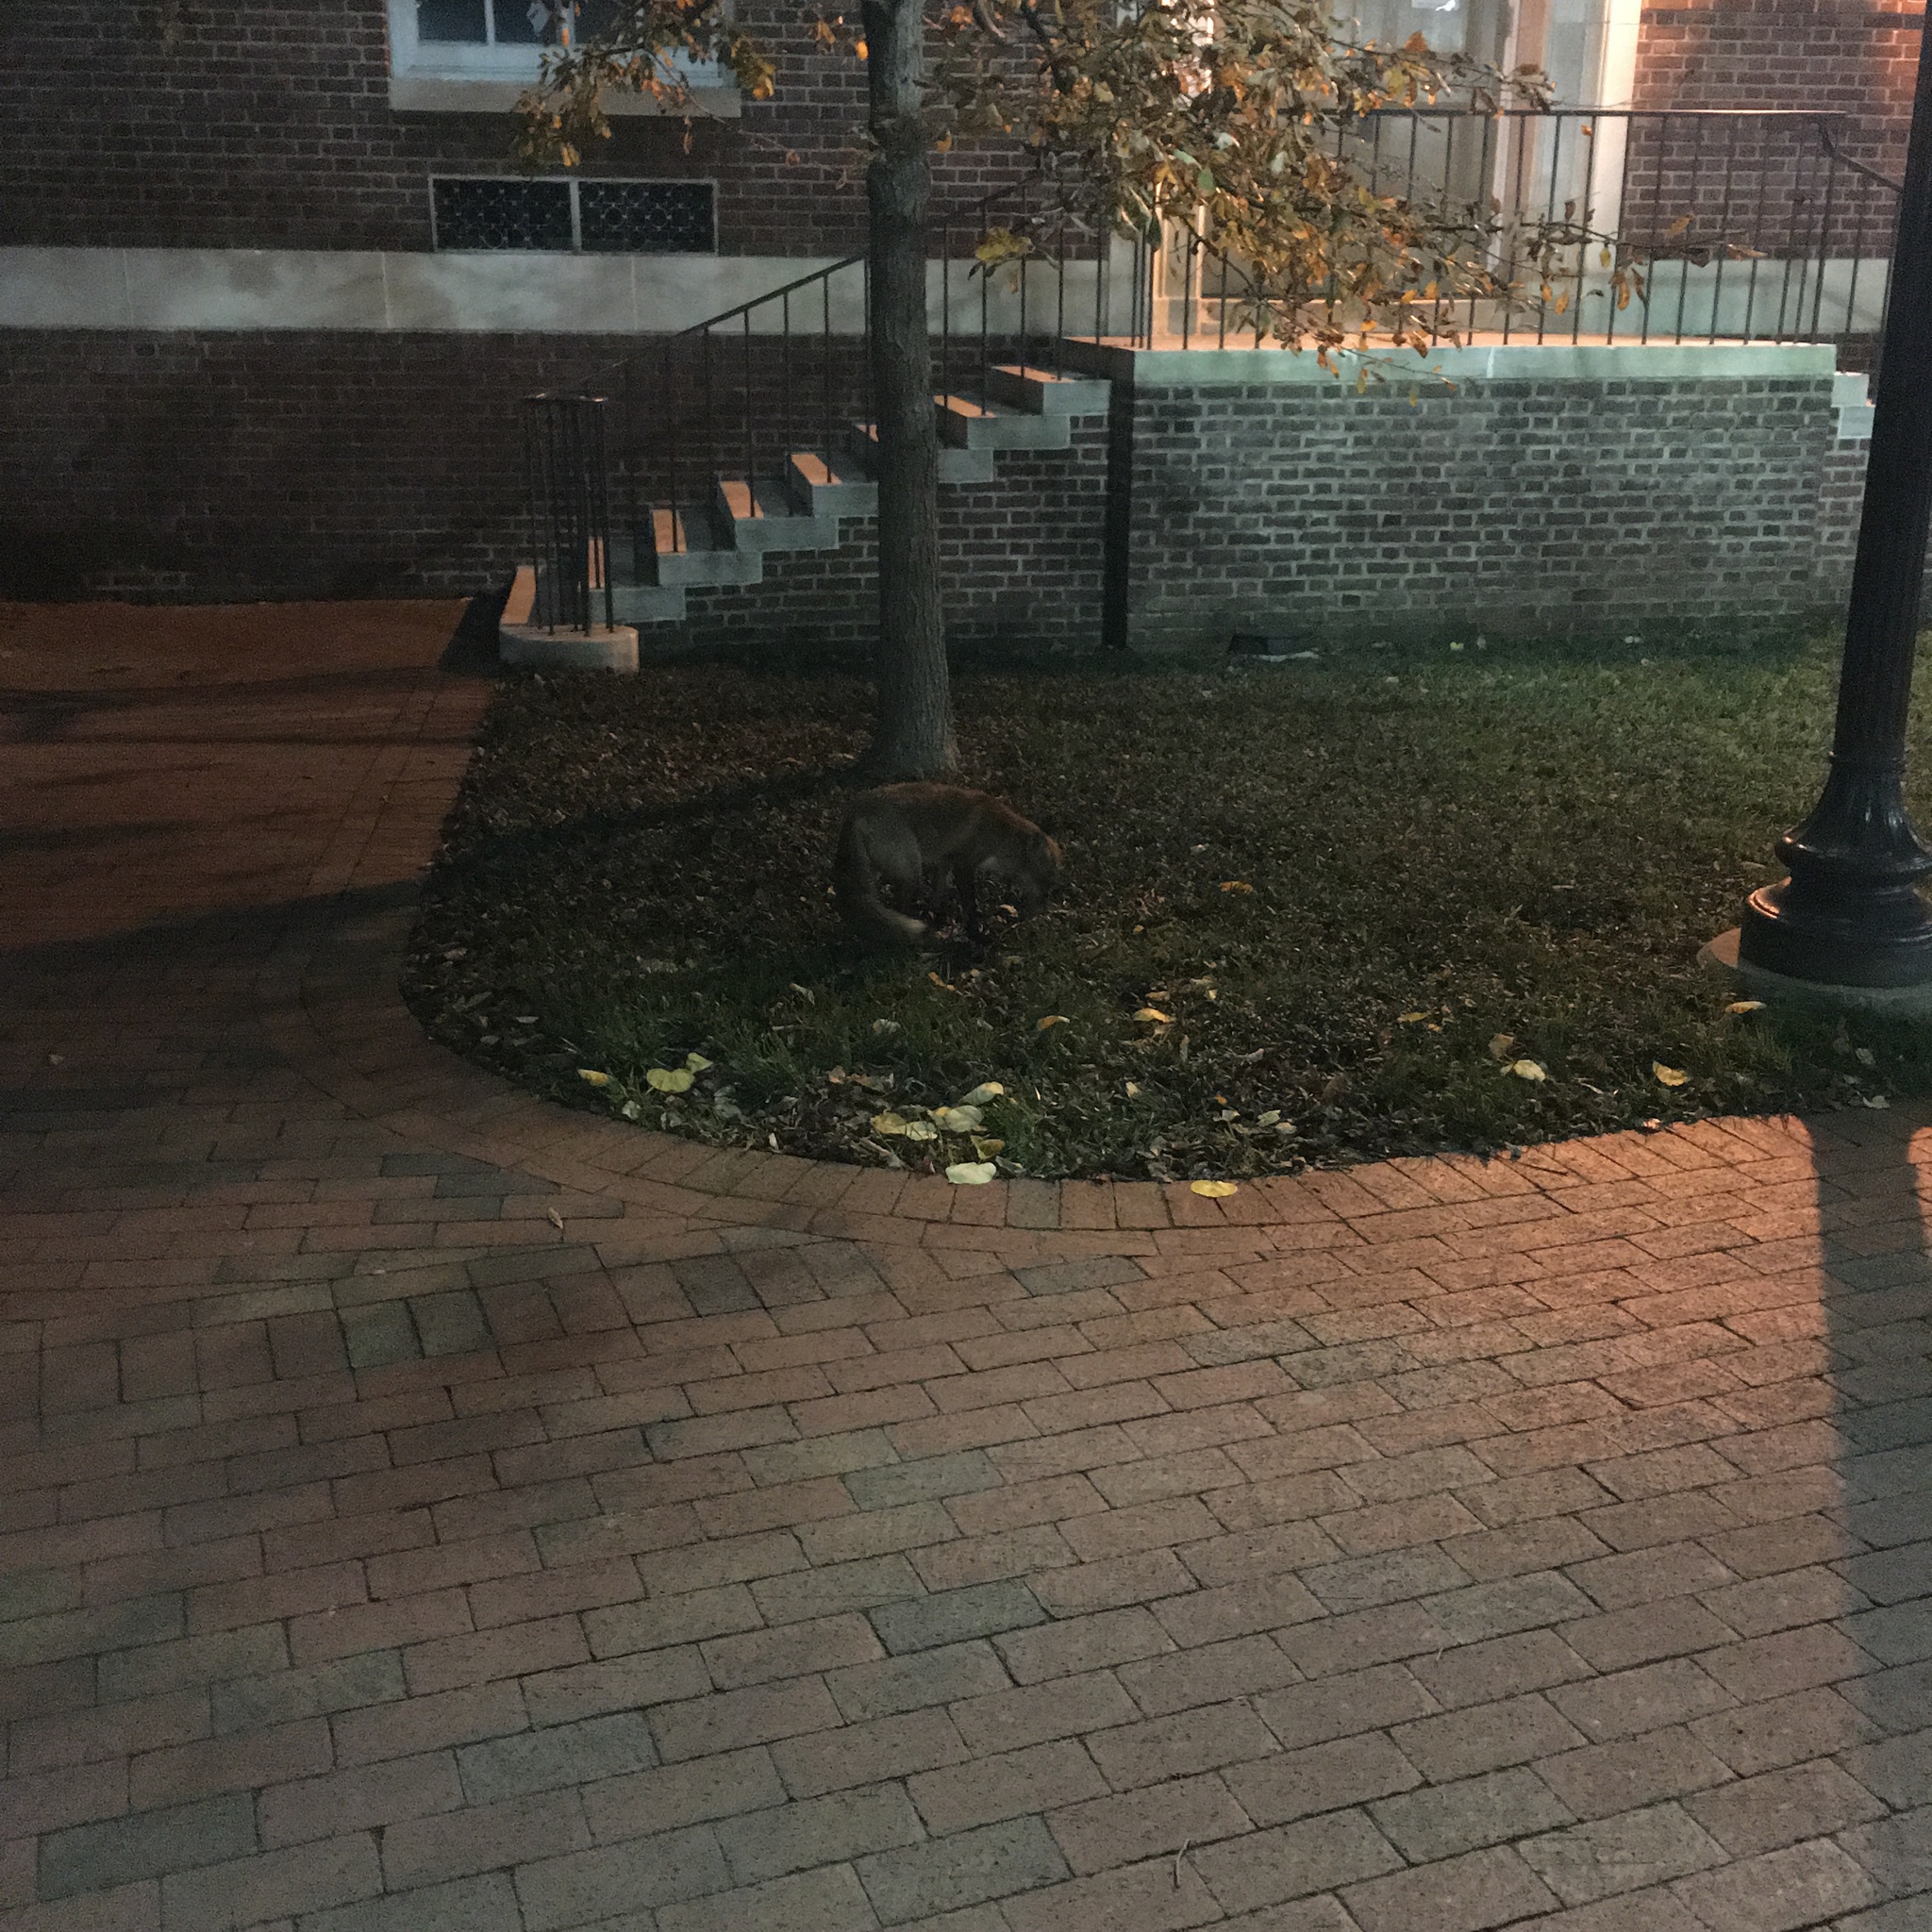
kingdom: Animalia
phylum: Chordata
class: Mammalia
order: Carnivora
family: Canidae
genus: Vulpes
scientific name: Vulpes vulpes
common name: Red fox
